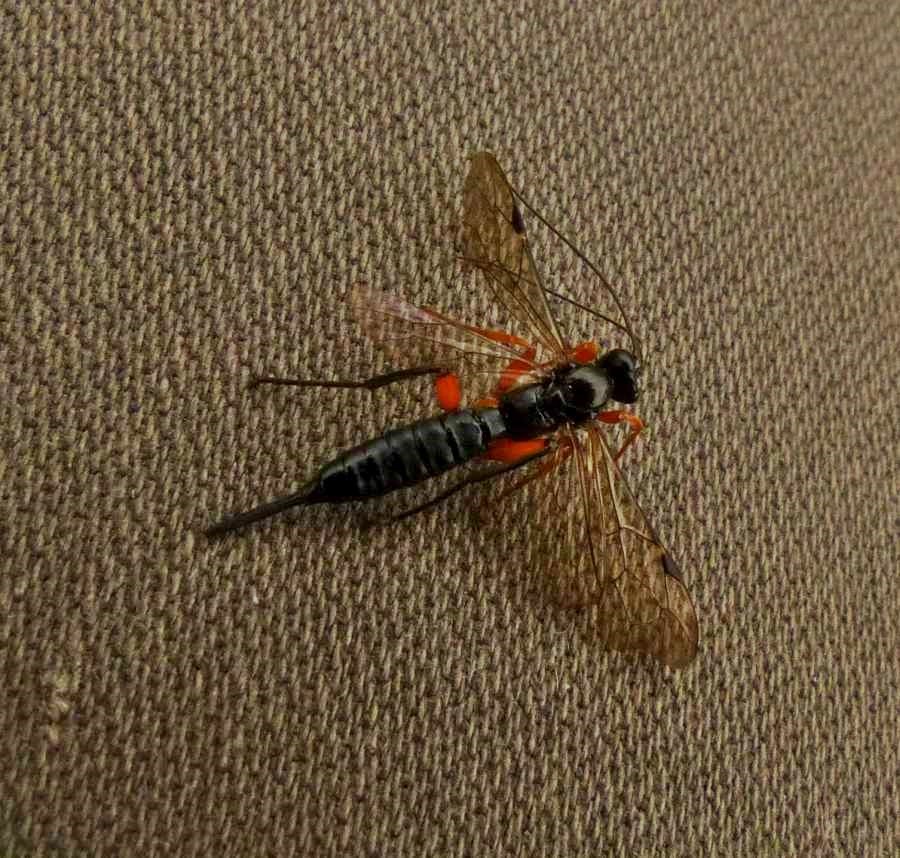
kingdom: Animalia
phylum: Arthropoda
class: Insecta
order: Hymenoptera
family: Ichneumonidae
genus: Pimpla
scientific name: Pimpla pedalis
